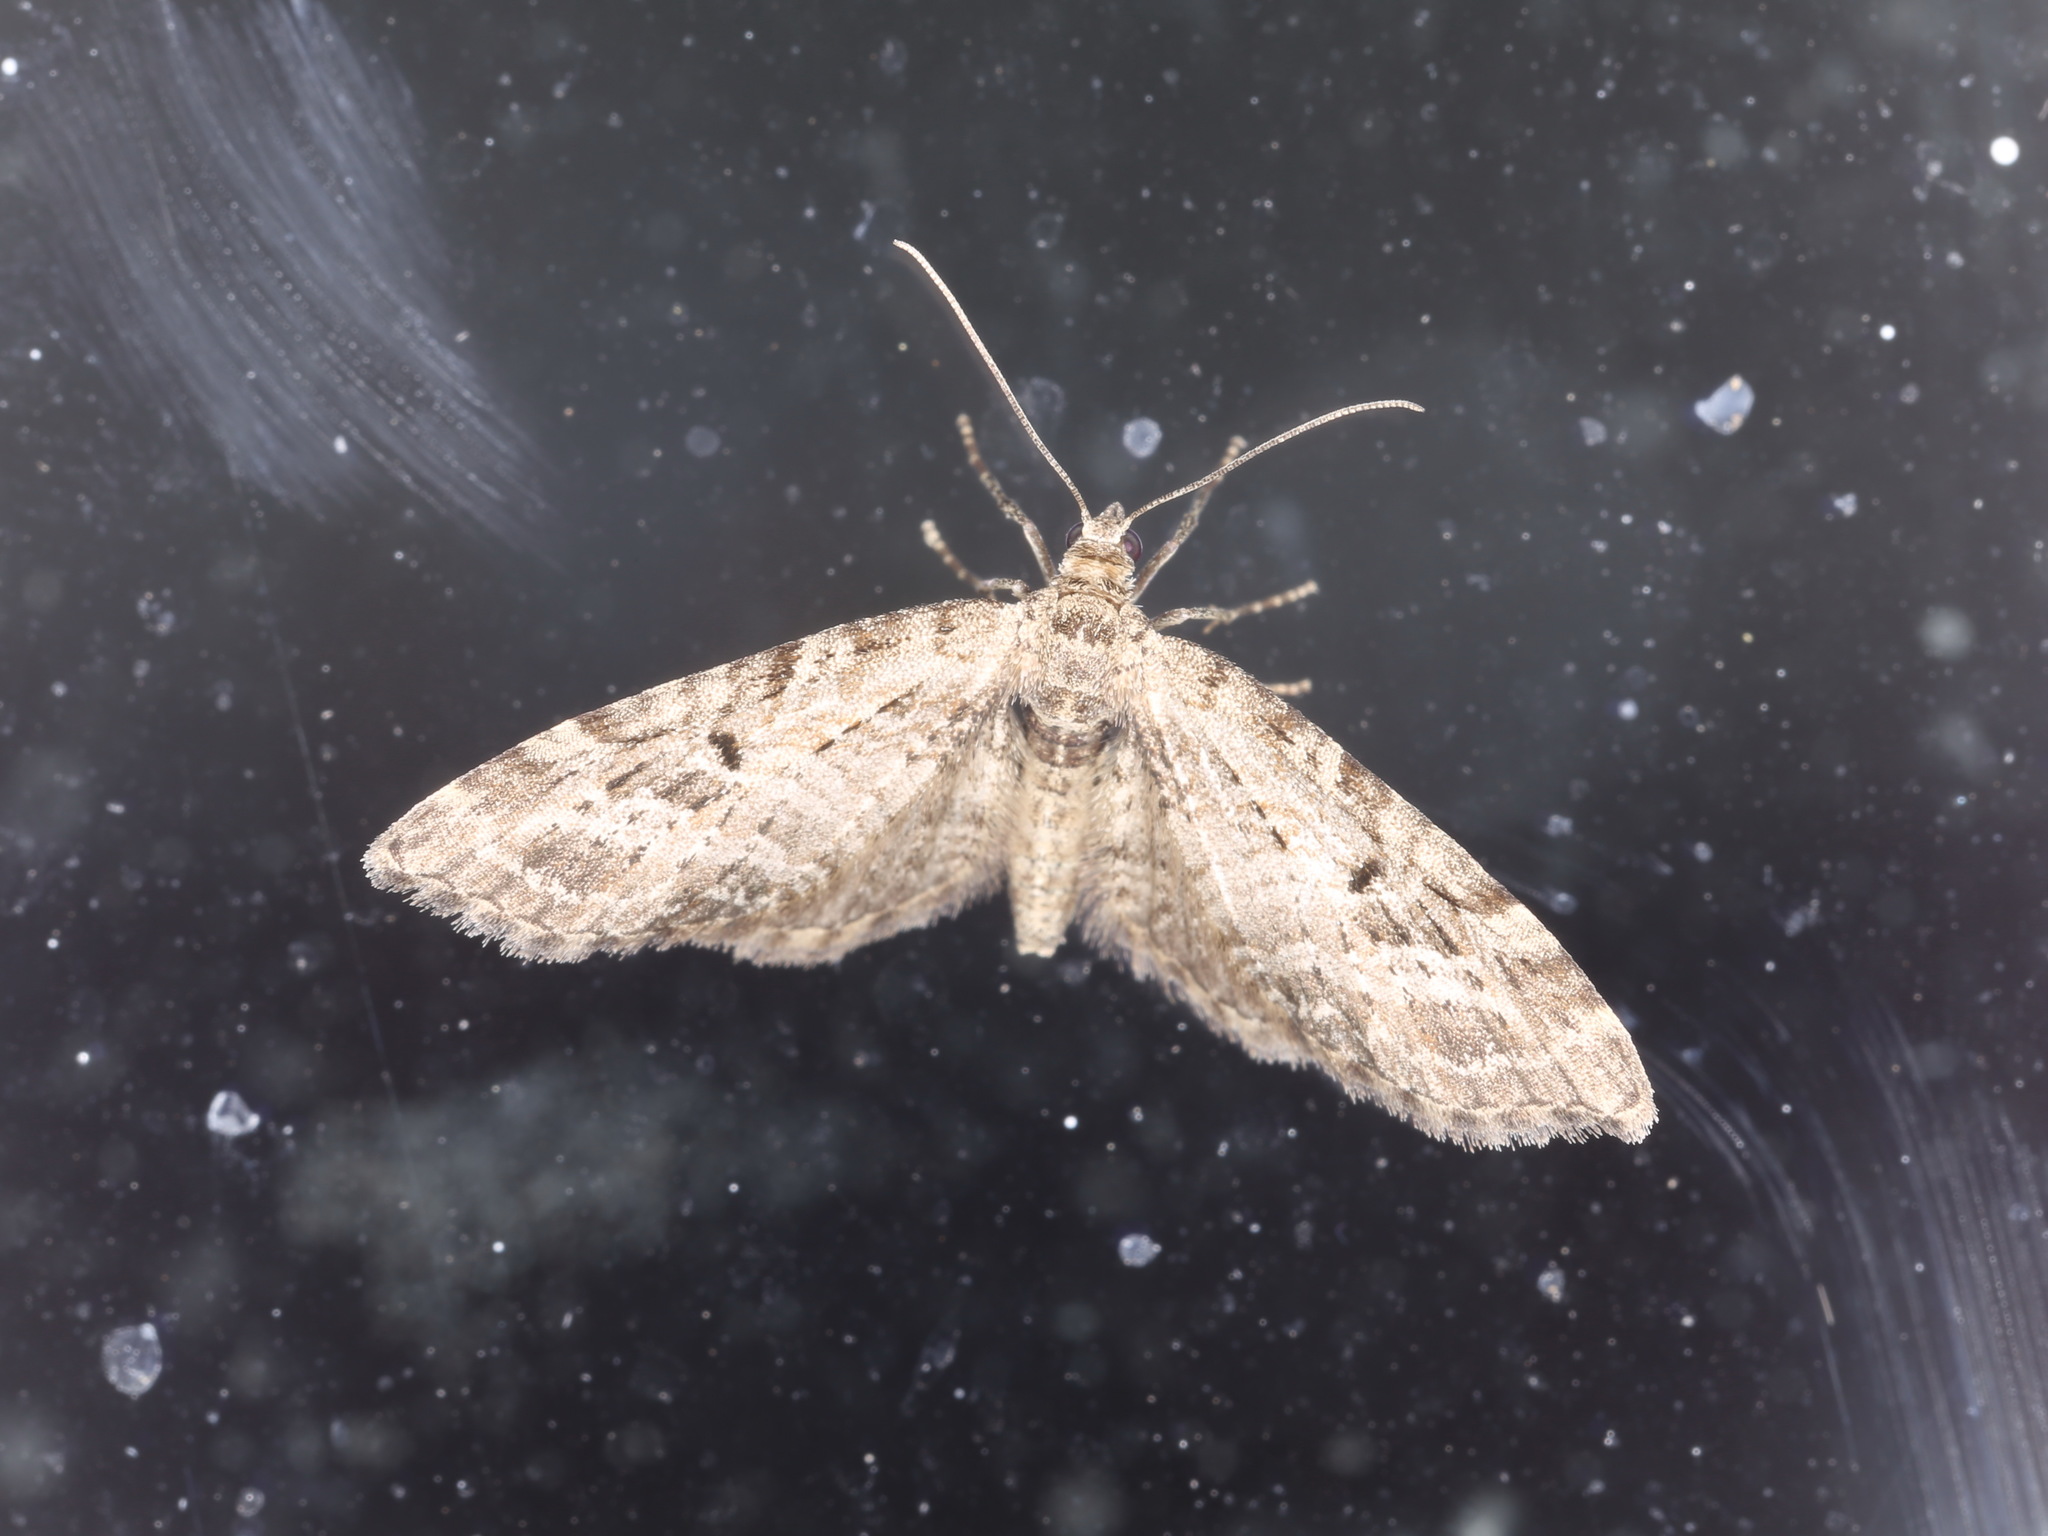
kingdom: Animalia
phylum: Arthropoda
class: Insecta
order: Lepidoptera
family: Geometridae
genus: Eupithecia
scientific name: Eupithecia exiguata
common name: Mottled pug
